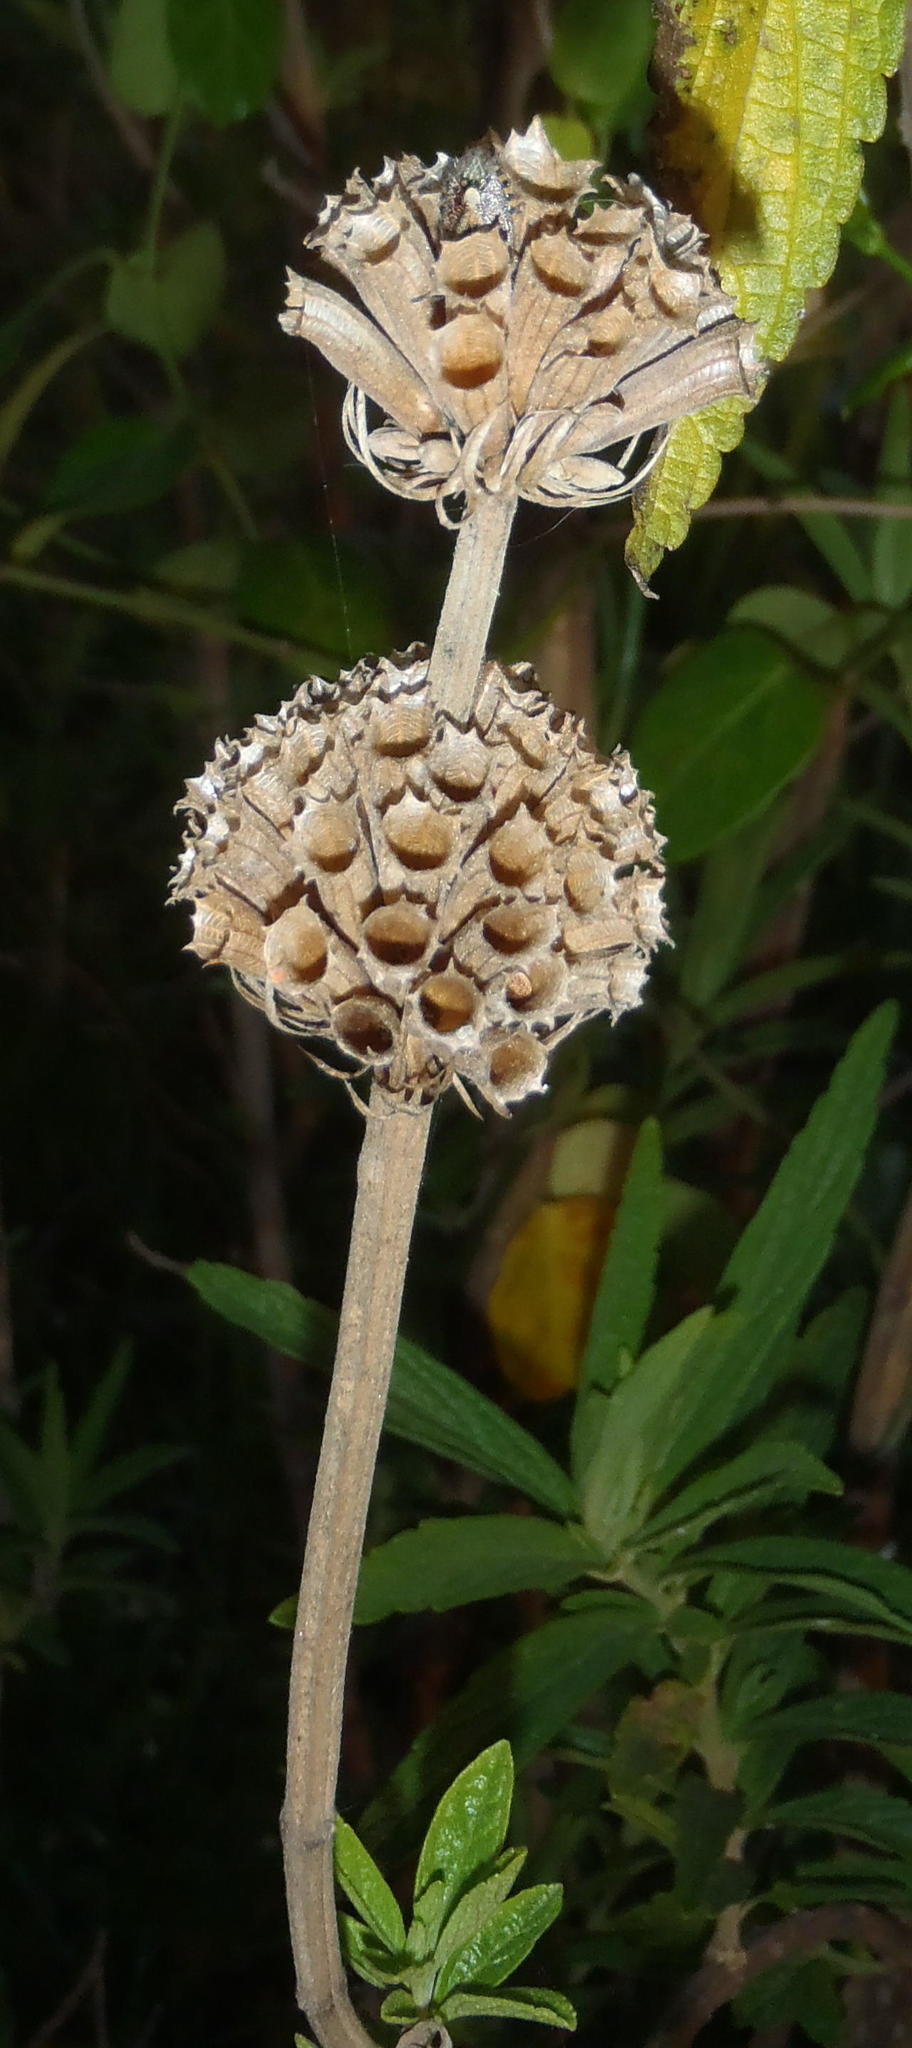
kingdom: Plantae
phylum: Tracheophyta
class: Magnoliopsida
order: Lamiales
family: Lamiaceae
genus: Leonotis
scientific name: Leonotis leonurus
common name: Lion's ear
